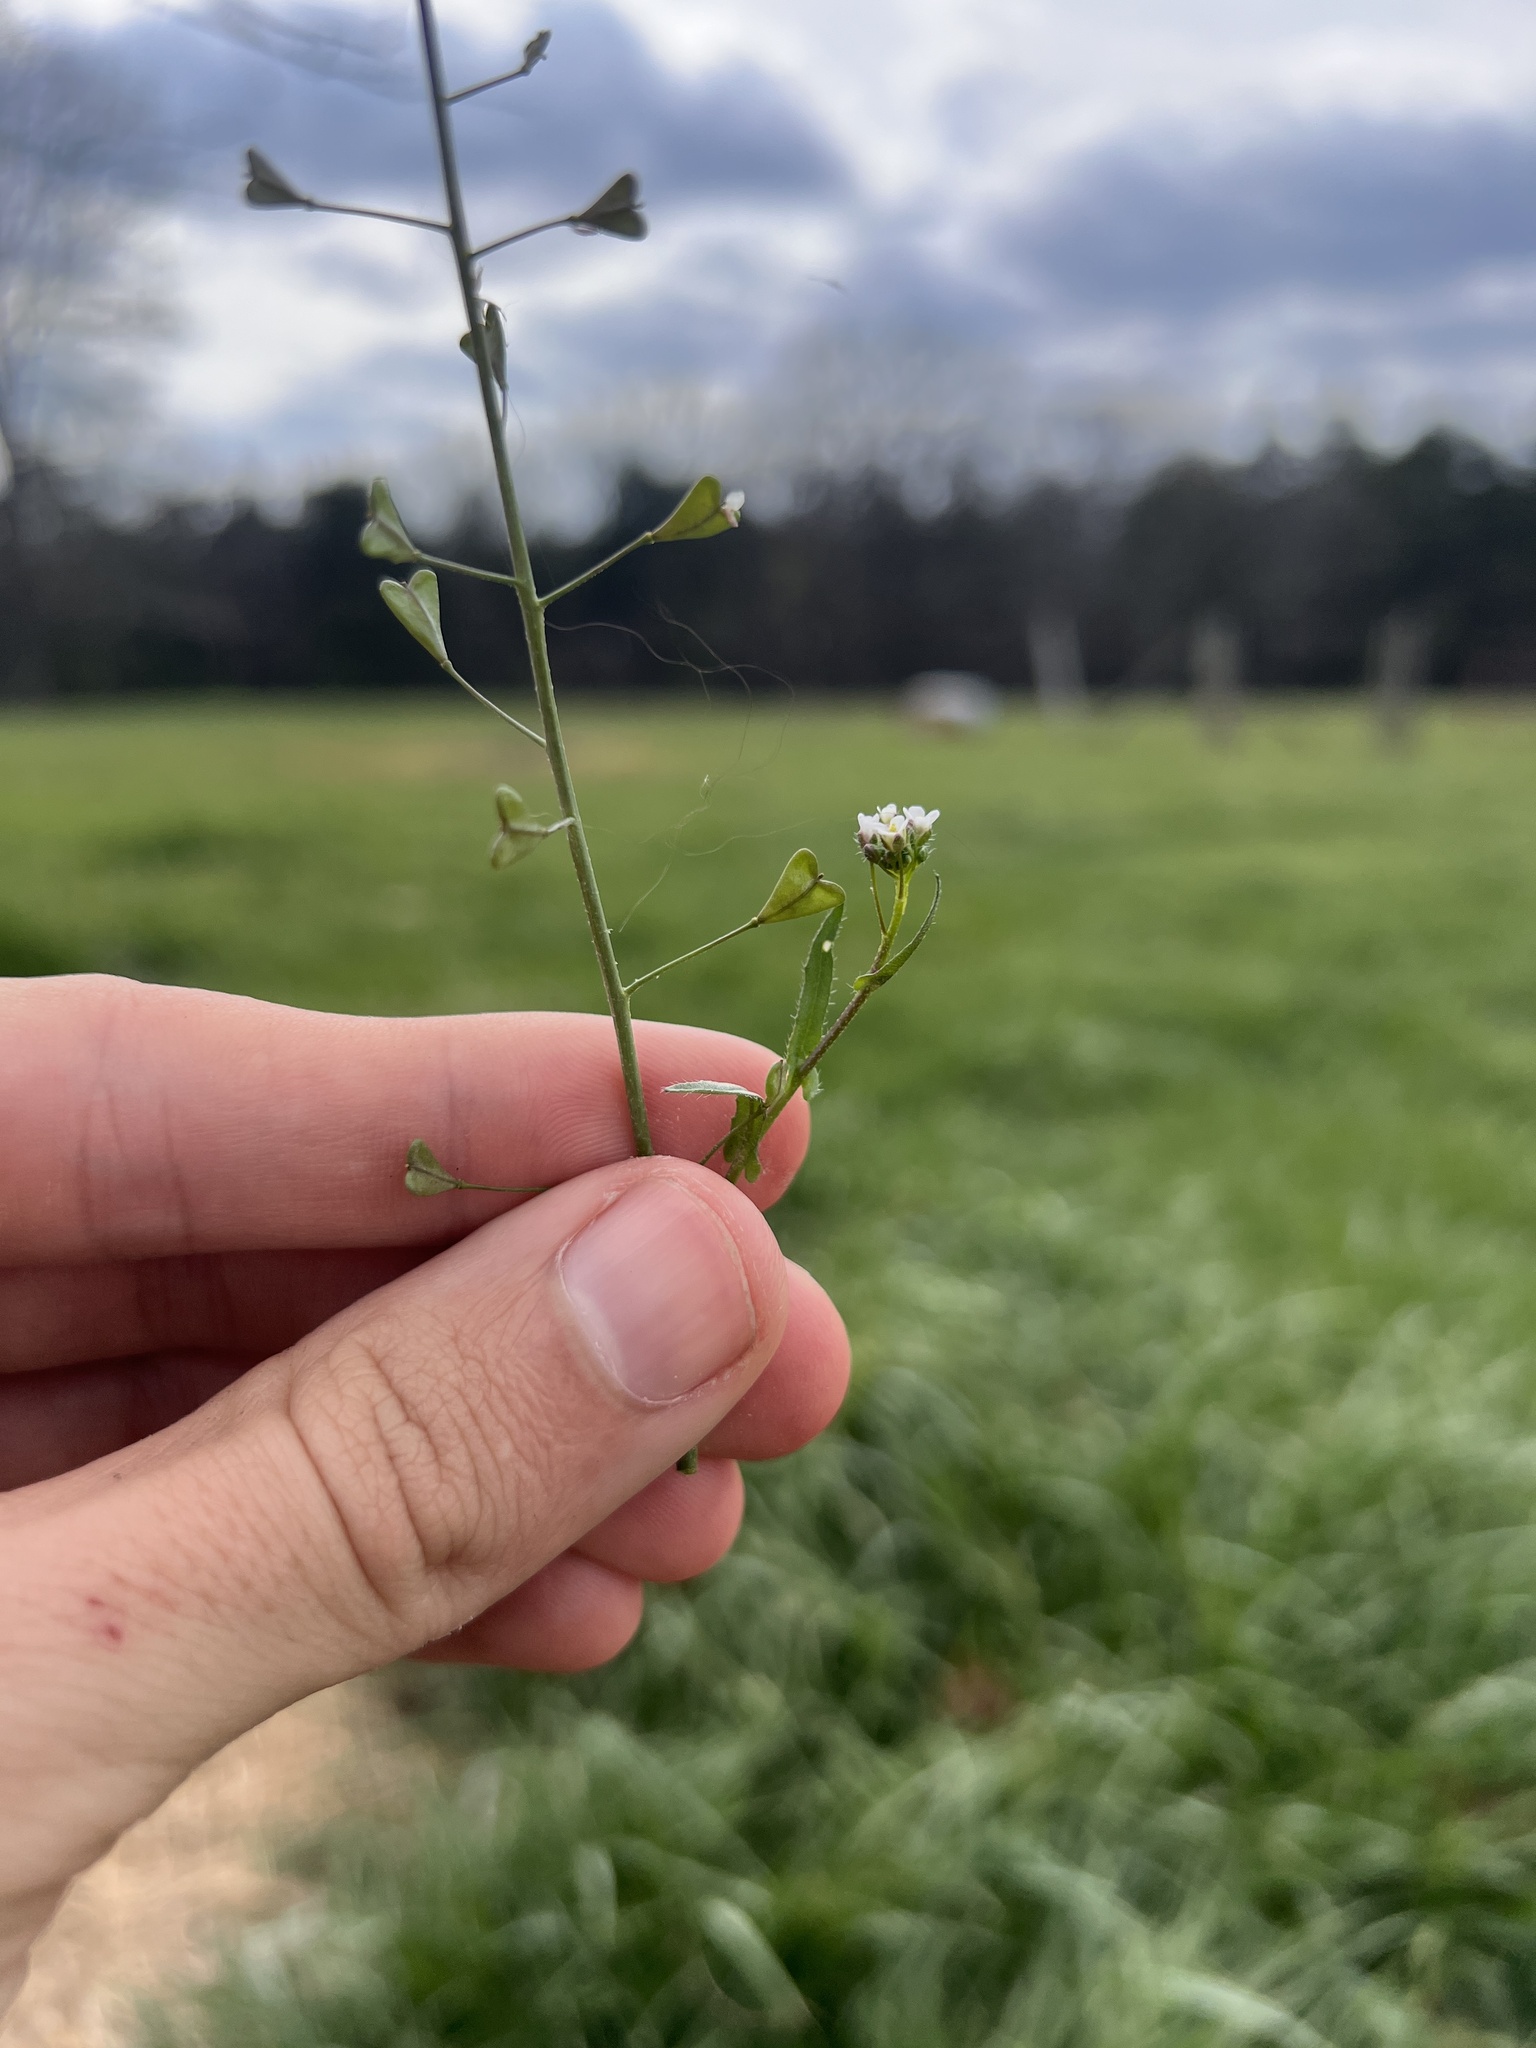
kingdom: Plantae
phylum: Tracheophyta
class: Magnoliopsida
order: Brassicales
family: Brassicaceae
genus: Capsella
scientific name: Capsella bursa-pastoris
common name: Shepherd's purse
